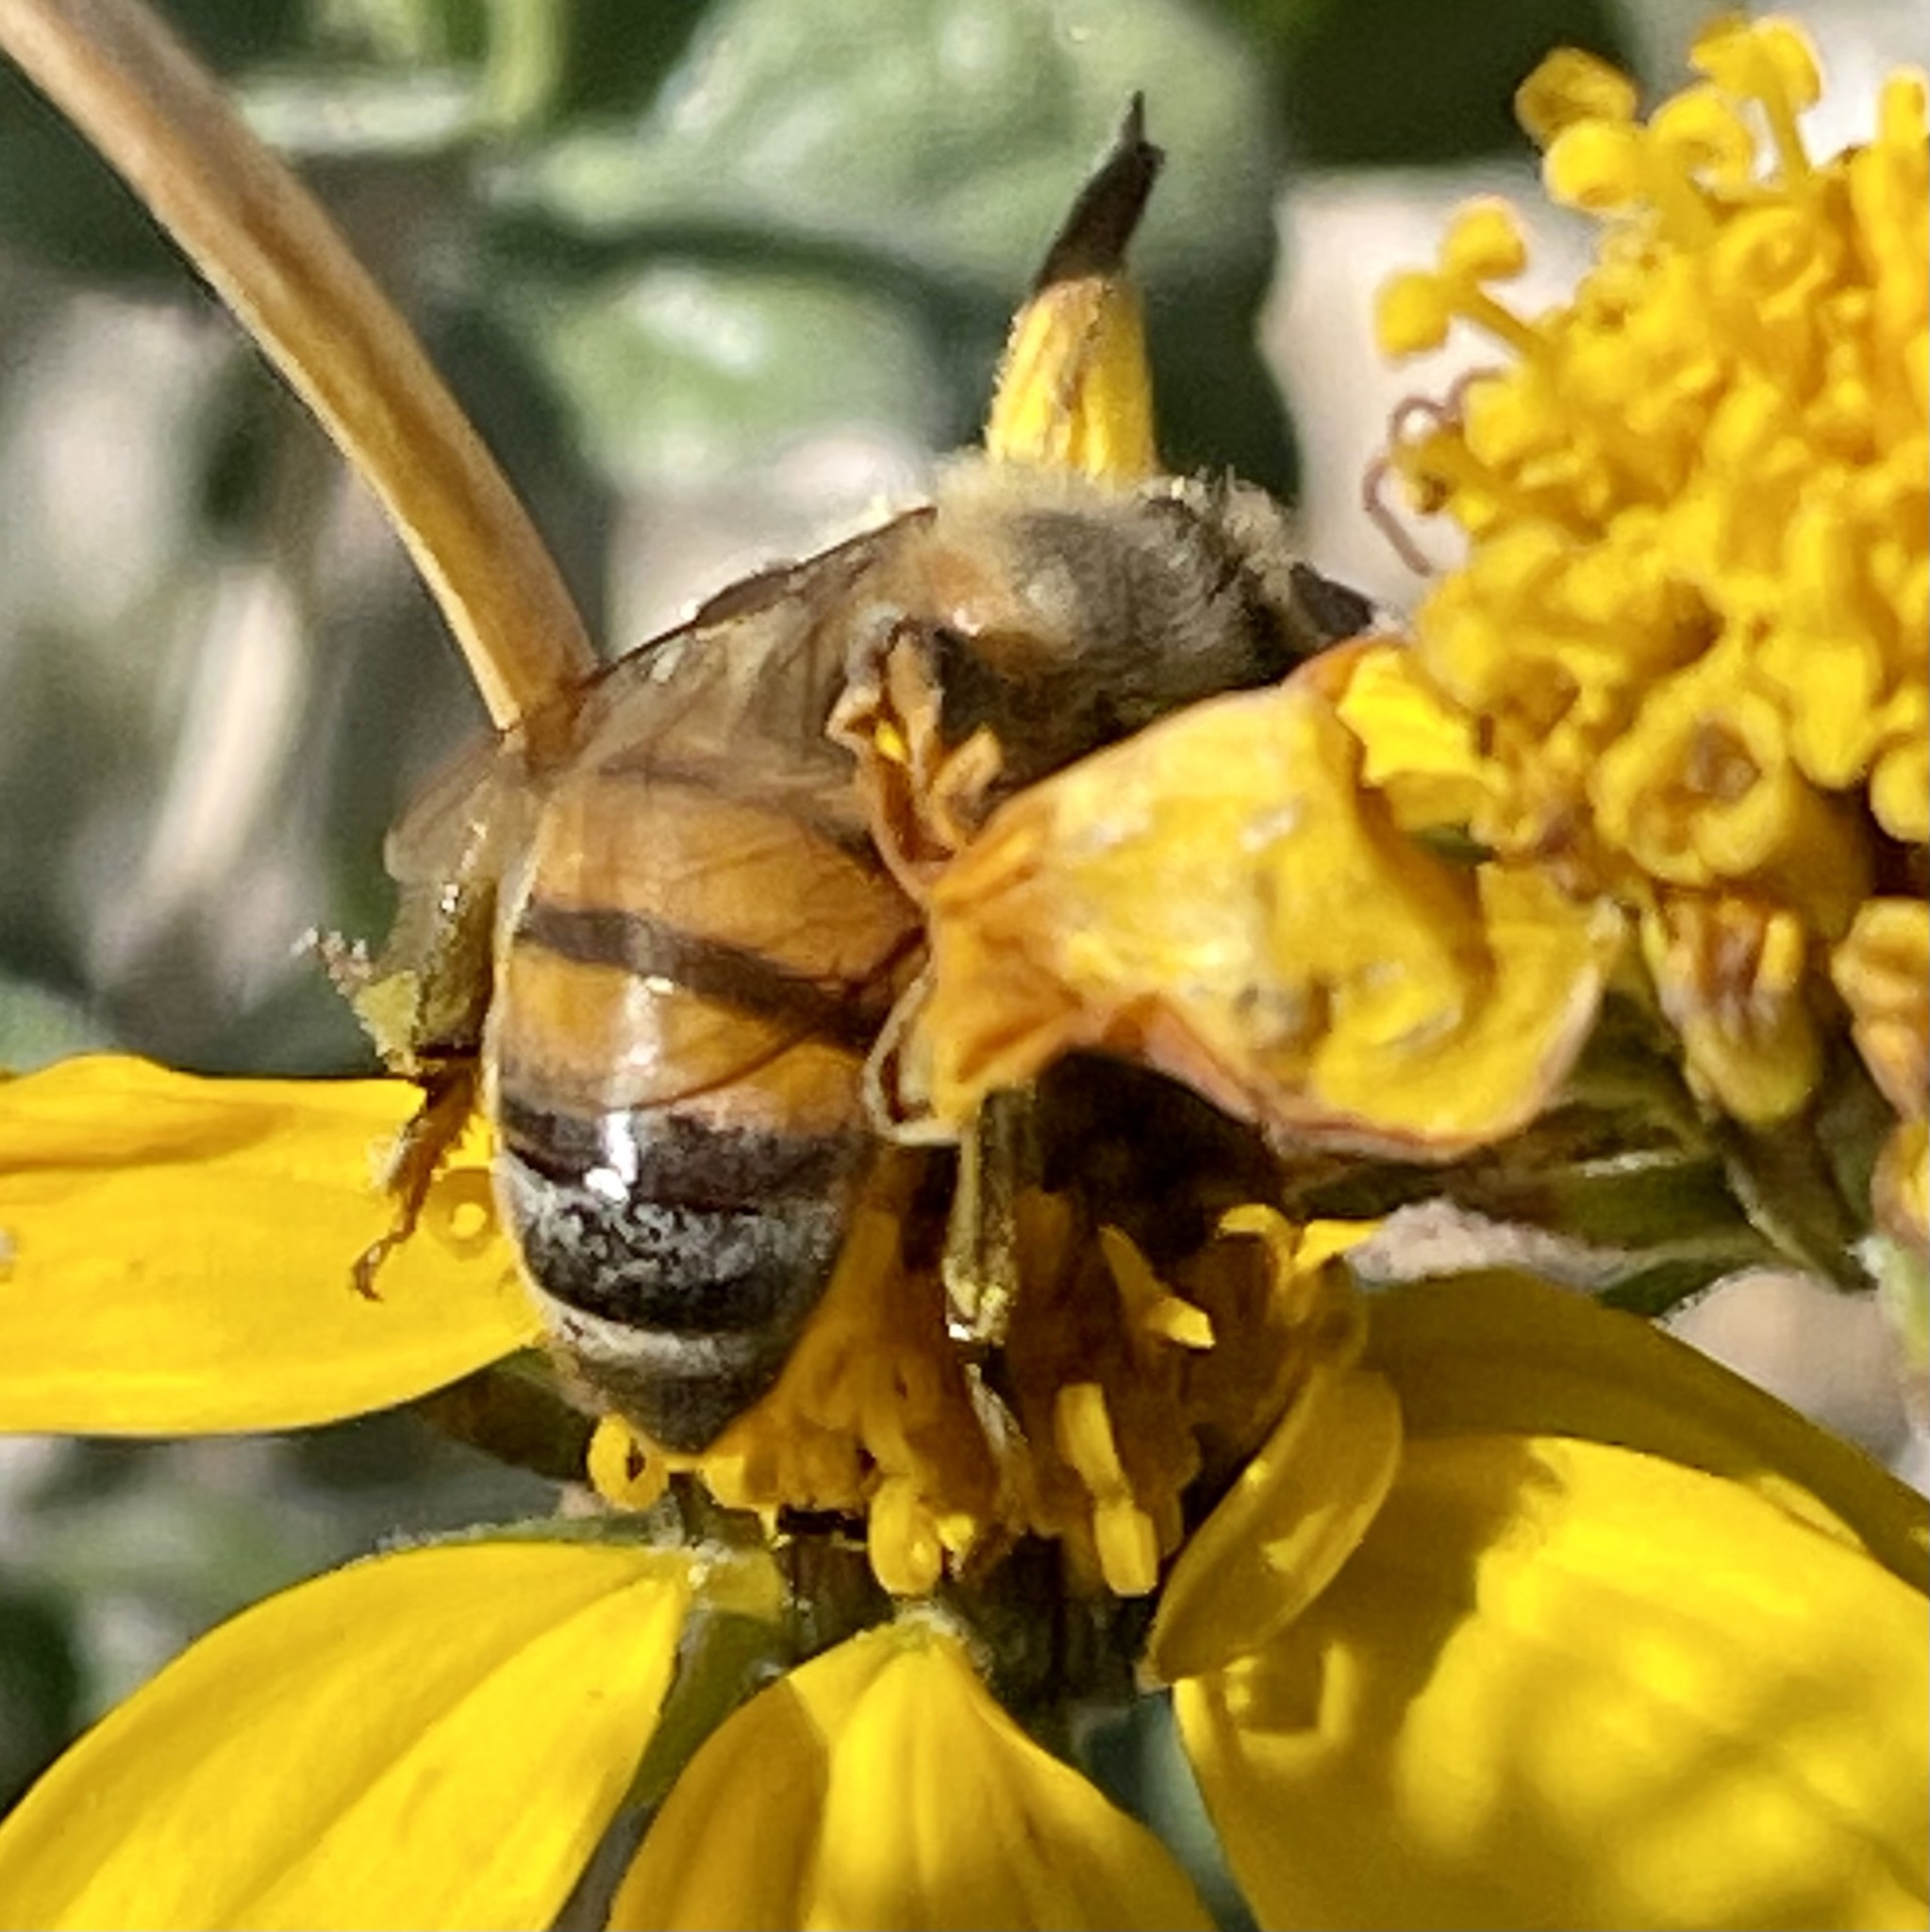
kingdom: Animalia
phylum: Arthropoda
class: Insecta
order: Hymenoptera
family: Apidae
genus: Apis
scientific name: Apis mellifera
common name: Honey bee
